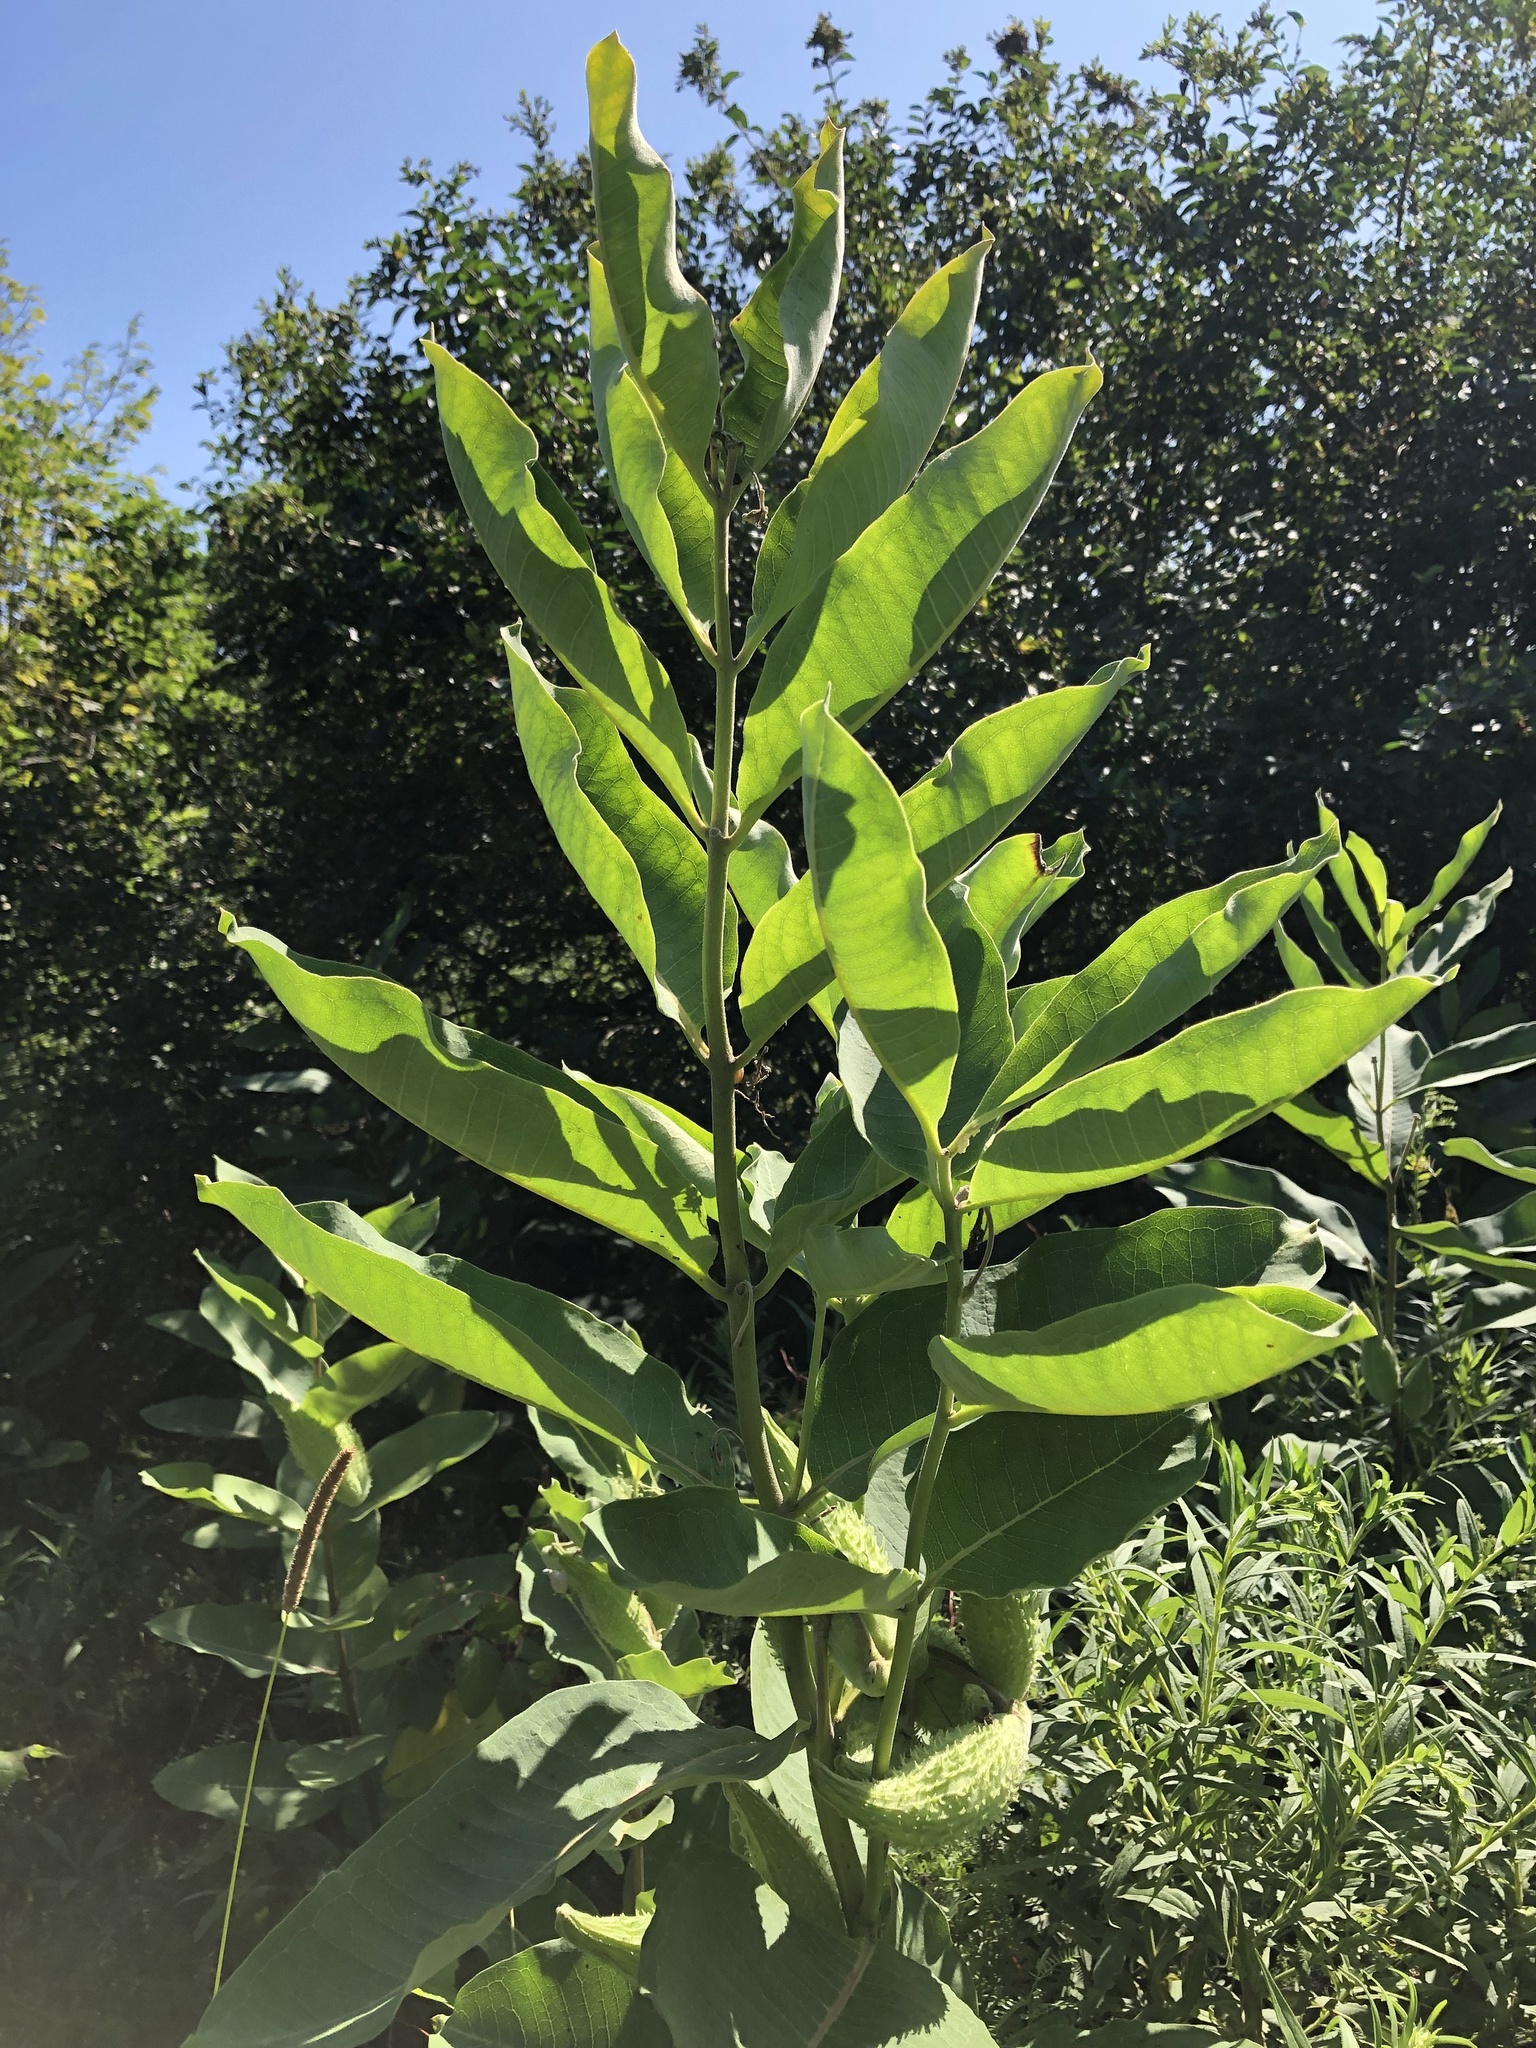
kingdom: Plantae
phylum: Tracheophyta
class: Magnoliopsida
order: Gentianales
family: Apocynaceae
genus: Asclepias
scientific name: Asclepias syriaca
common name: Common milkweed
